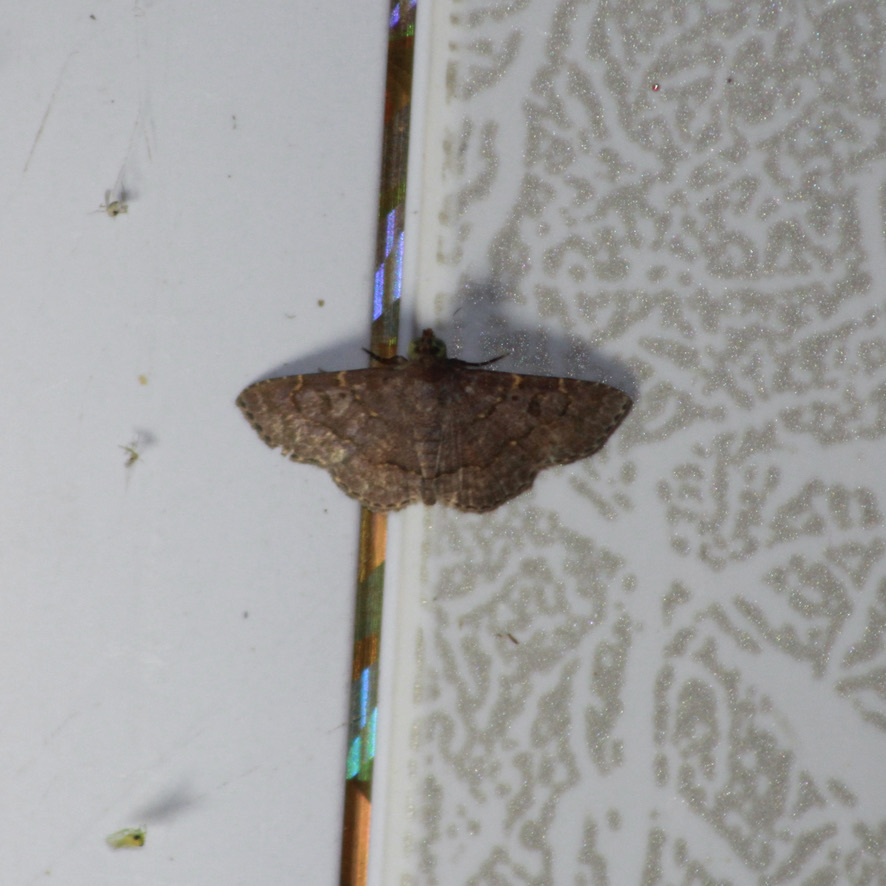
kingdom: Animalia
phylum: Arthropoda
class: Insecta
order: Lepidoptera
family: Erebidae
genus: Antiblemma
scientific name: Antiblemma mundicola
